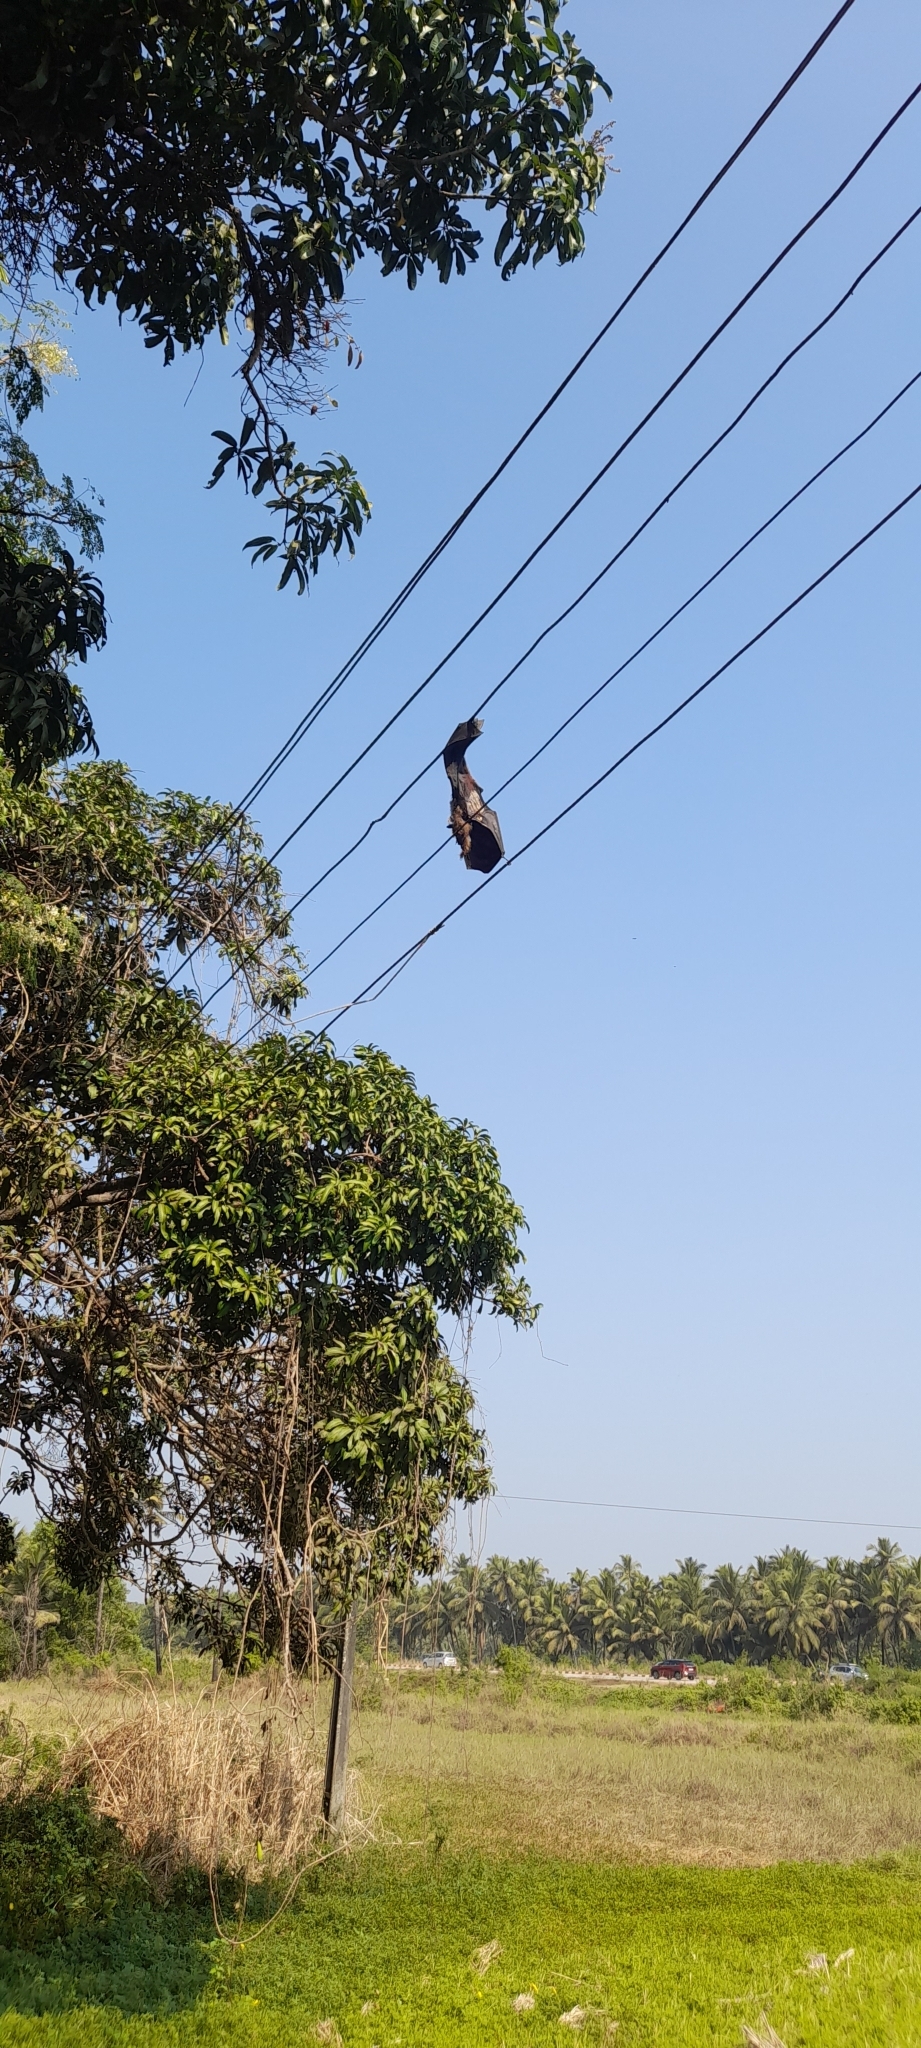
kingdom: Animalia
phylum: Chordata
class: Mammalia
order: Chiroptera
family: Pteropodidae
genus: Pteropus
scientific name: Pteropus vampyrus
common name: Large flying fox
